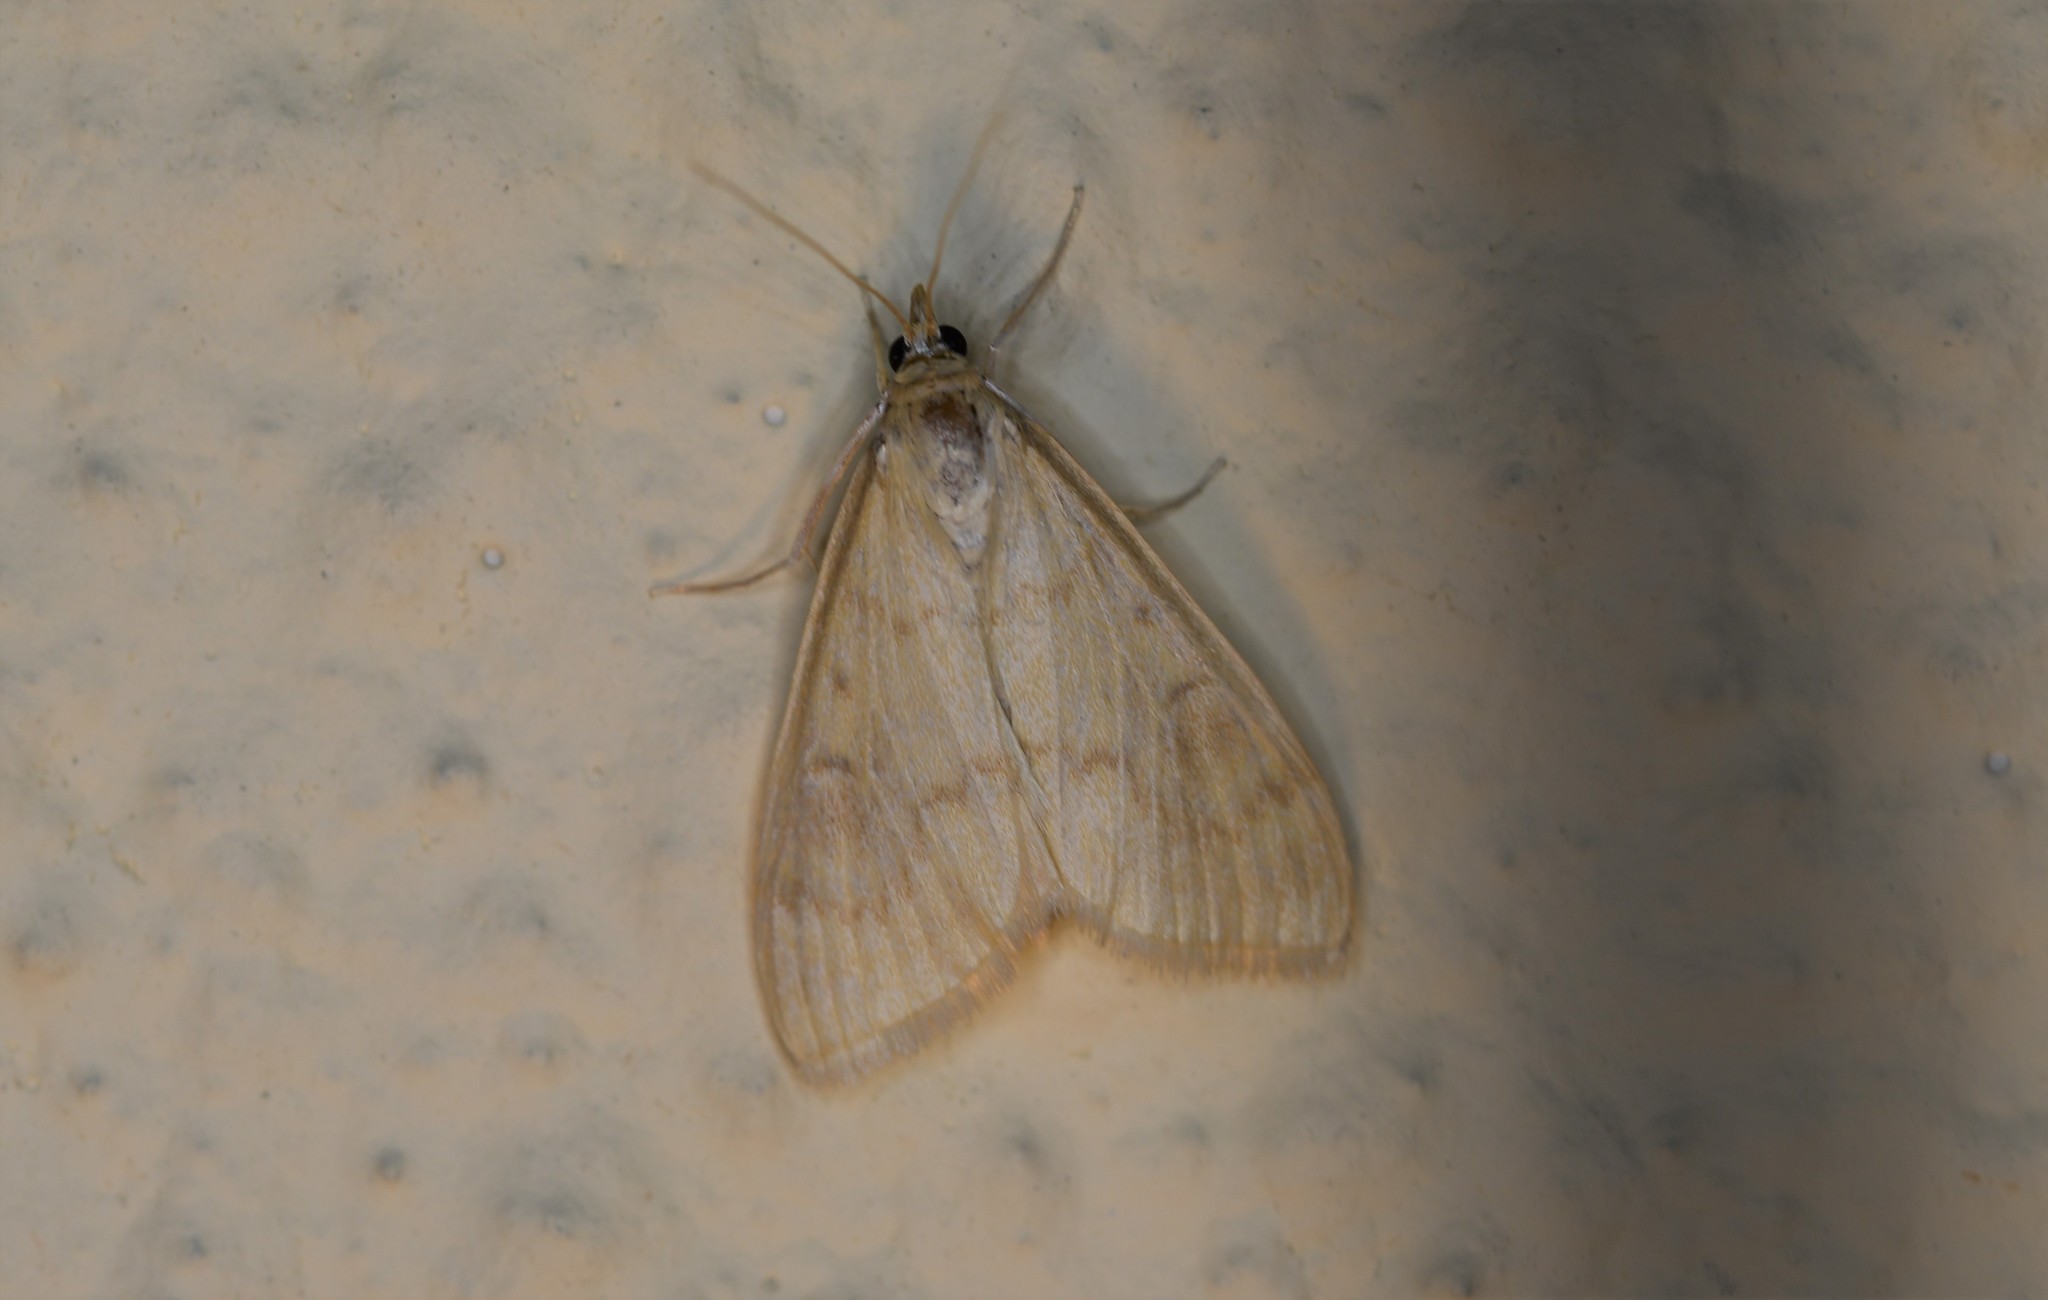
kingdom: Animalia
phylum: Arthropoda
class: Insecta
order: Lepidoptera
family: Crambidae
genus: Ostrinia
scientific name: Ostrinia nubilalis
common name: European corn borer
